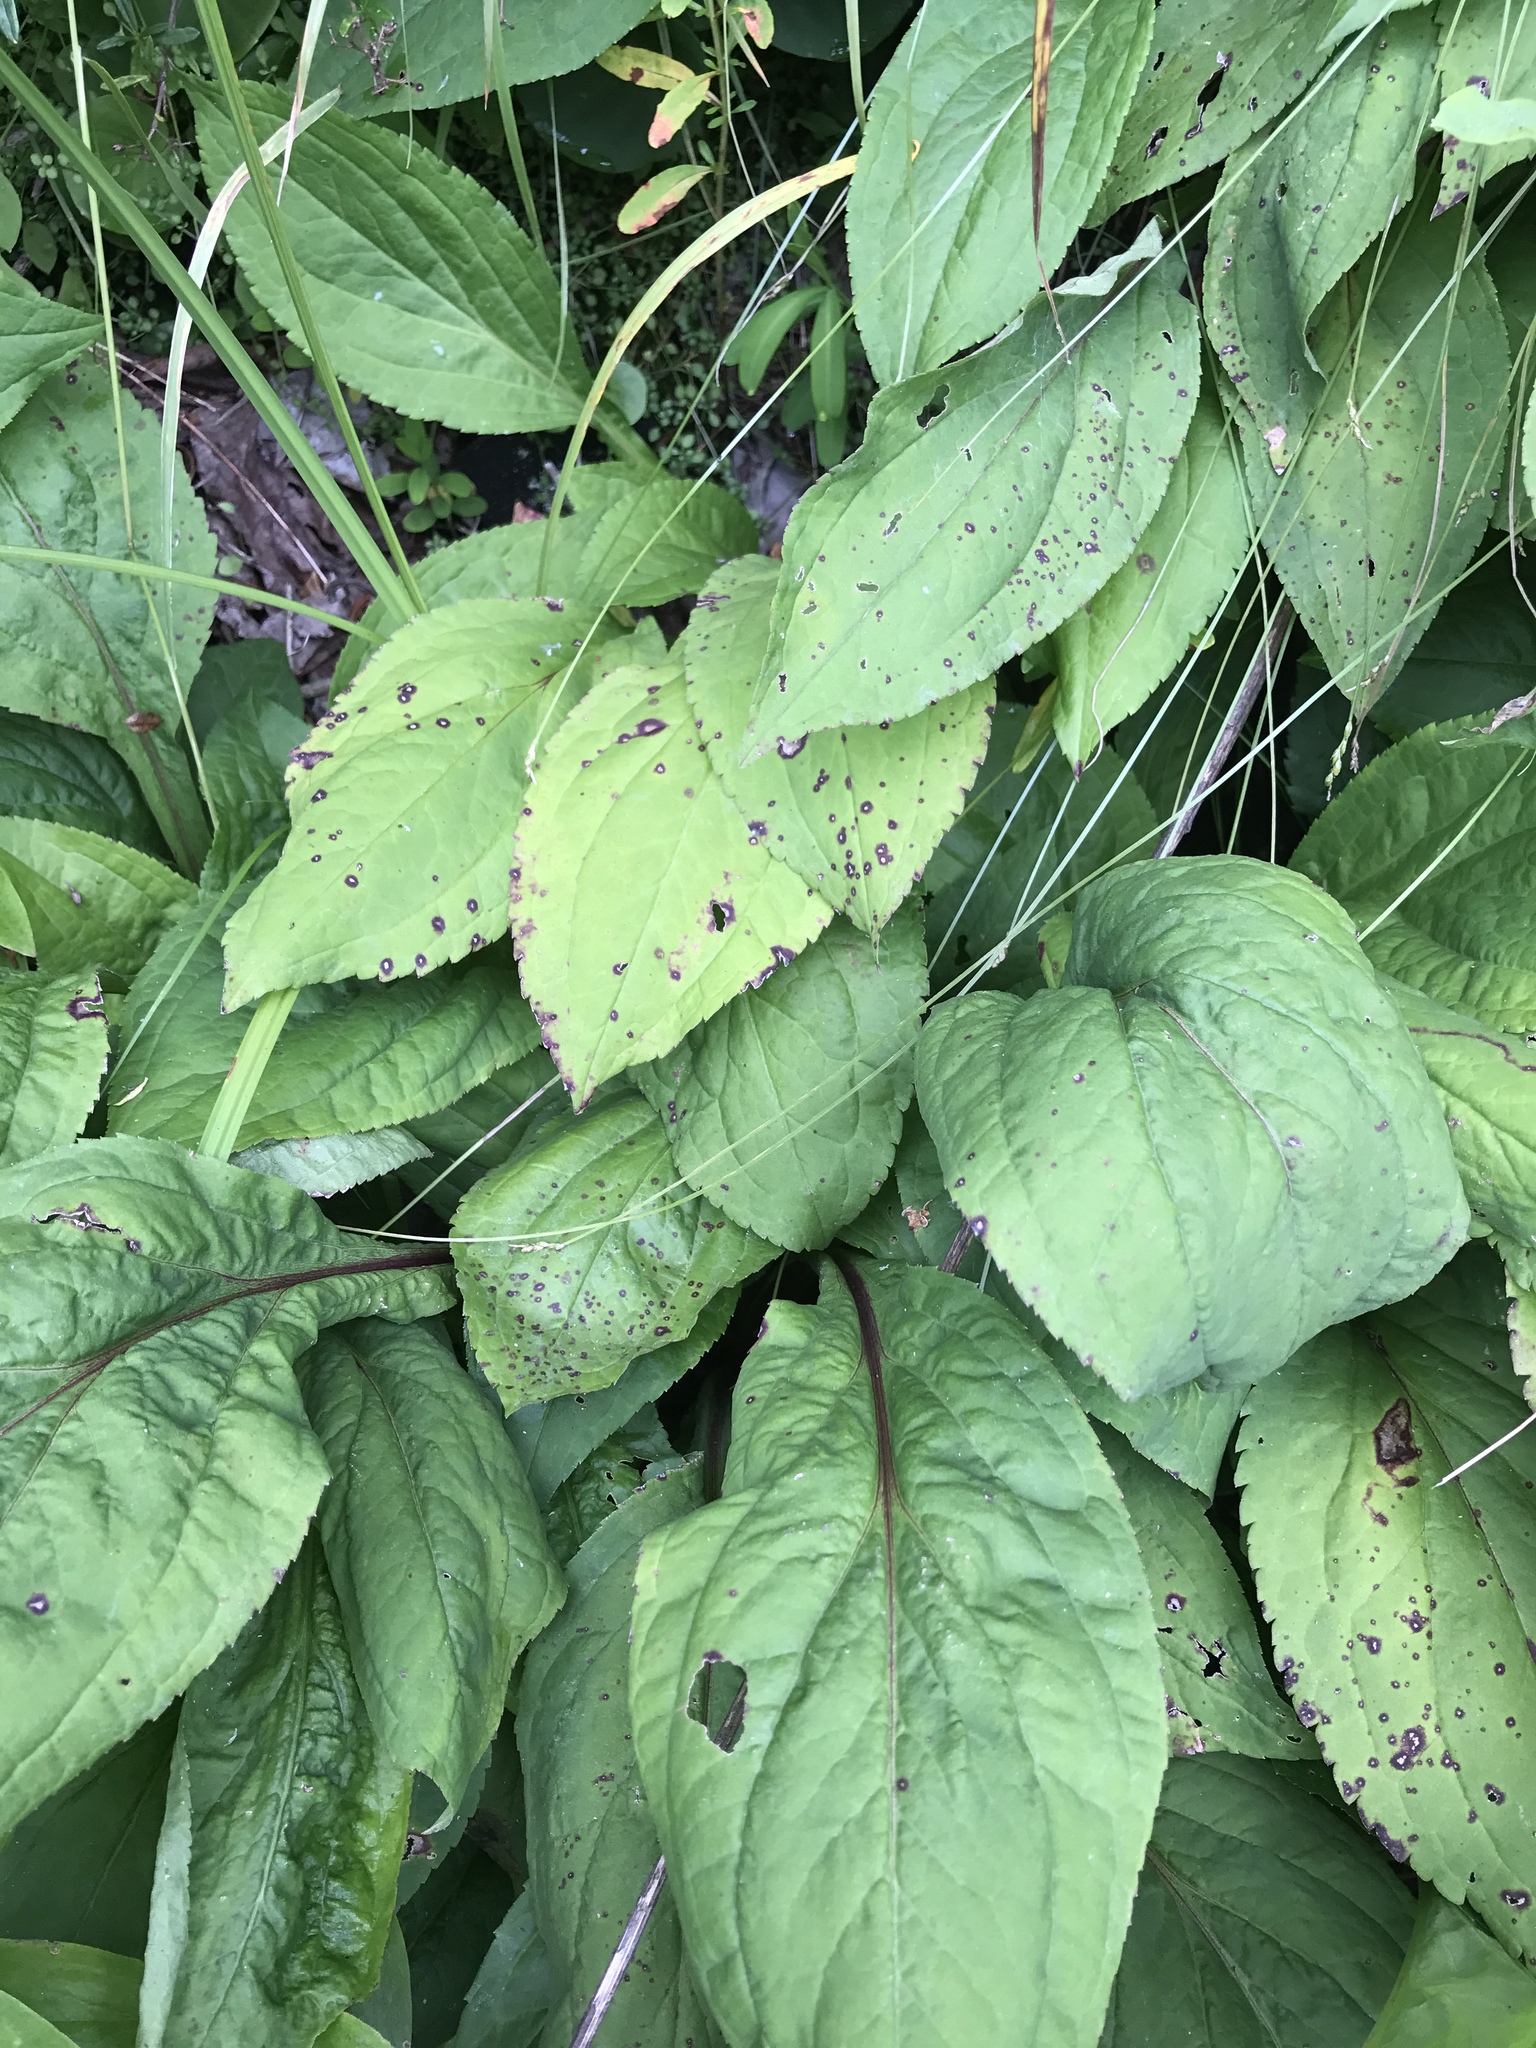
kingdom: Plantae
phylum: Tracheophyta
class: Magnoliopsida
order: Asterales
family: Asteraceae
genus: Solidago
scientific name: Solidago patula
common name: Rough-leaf goldenrod
